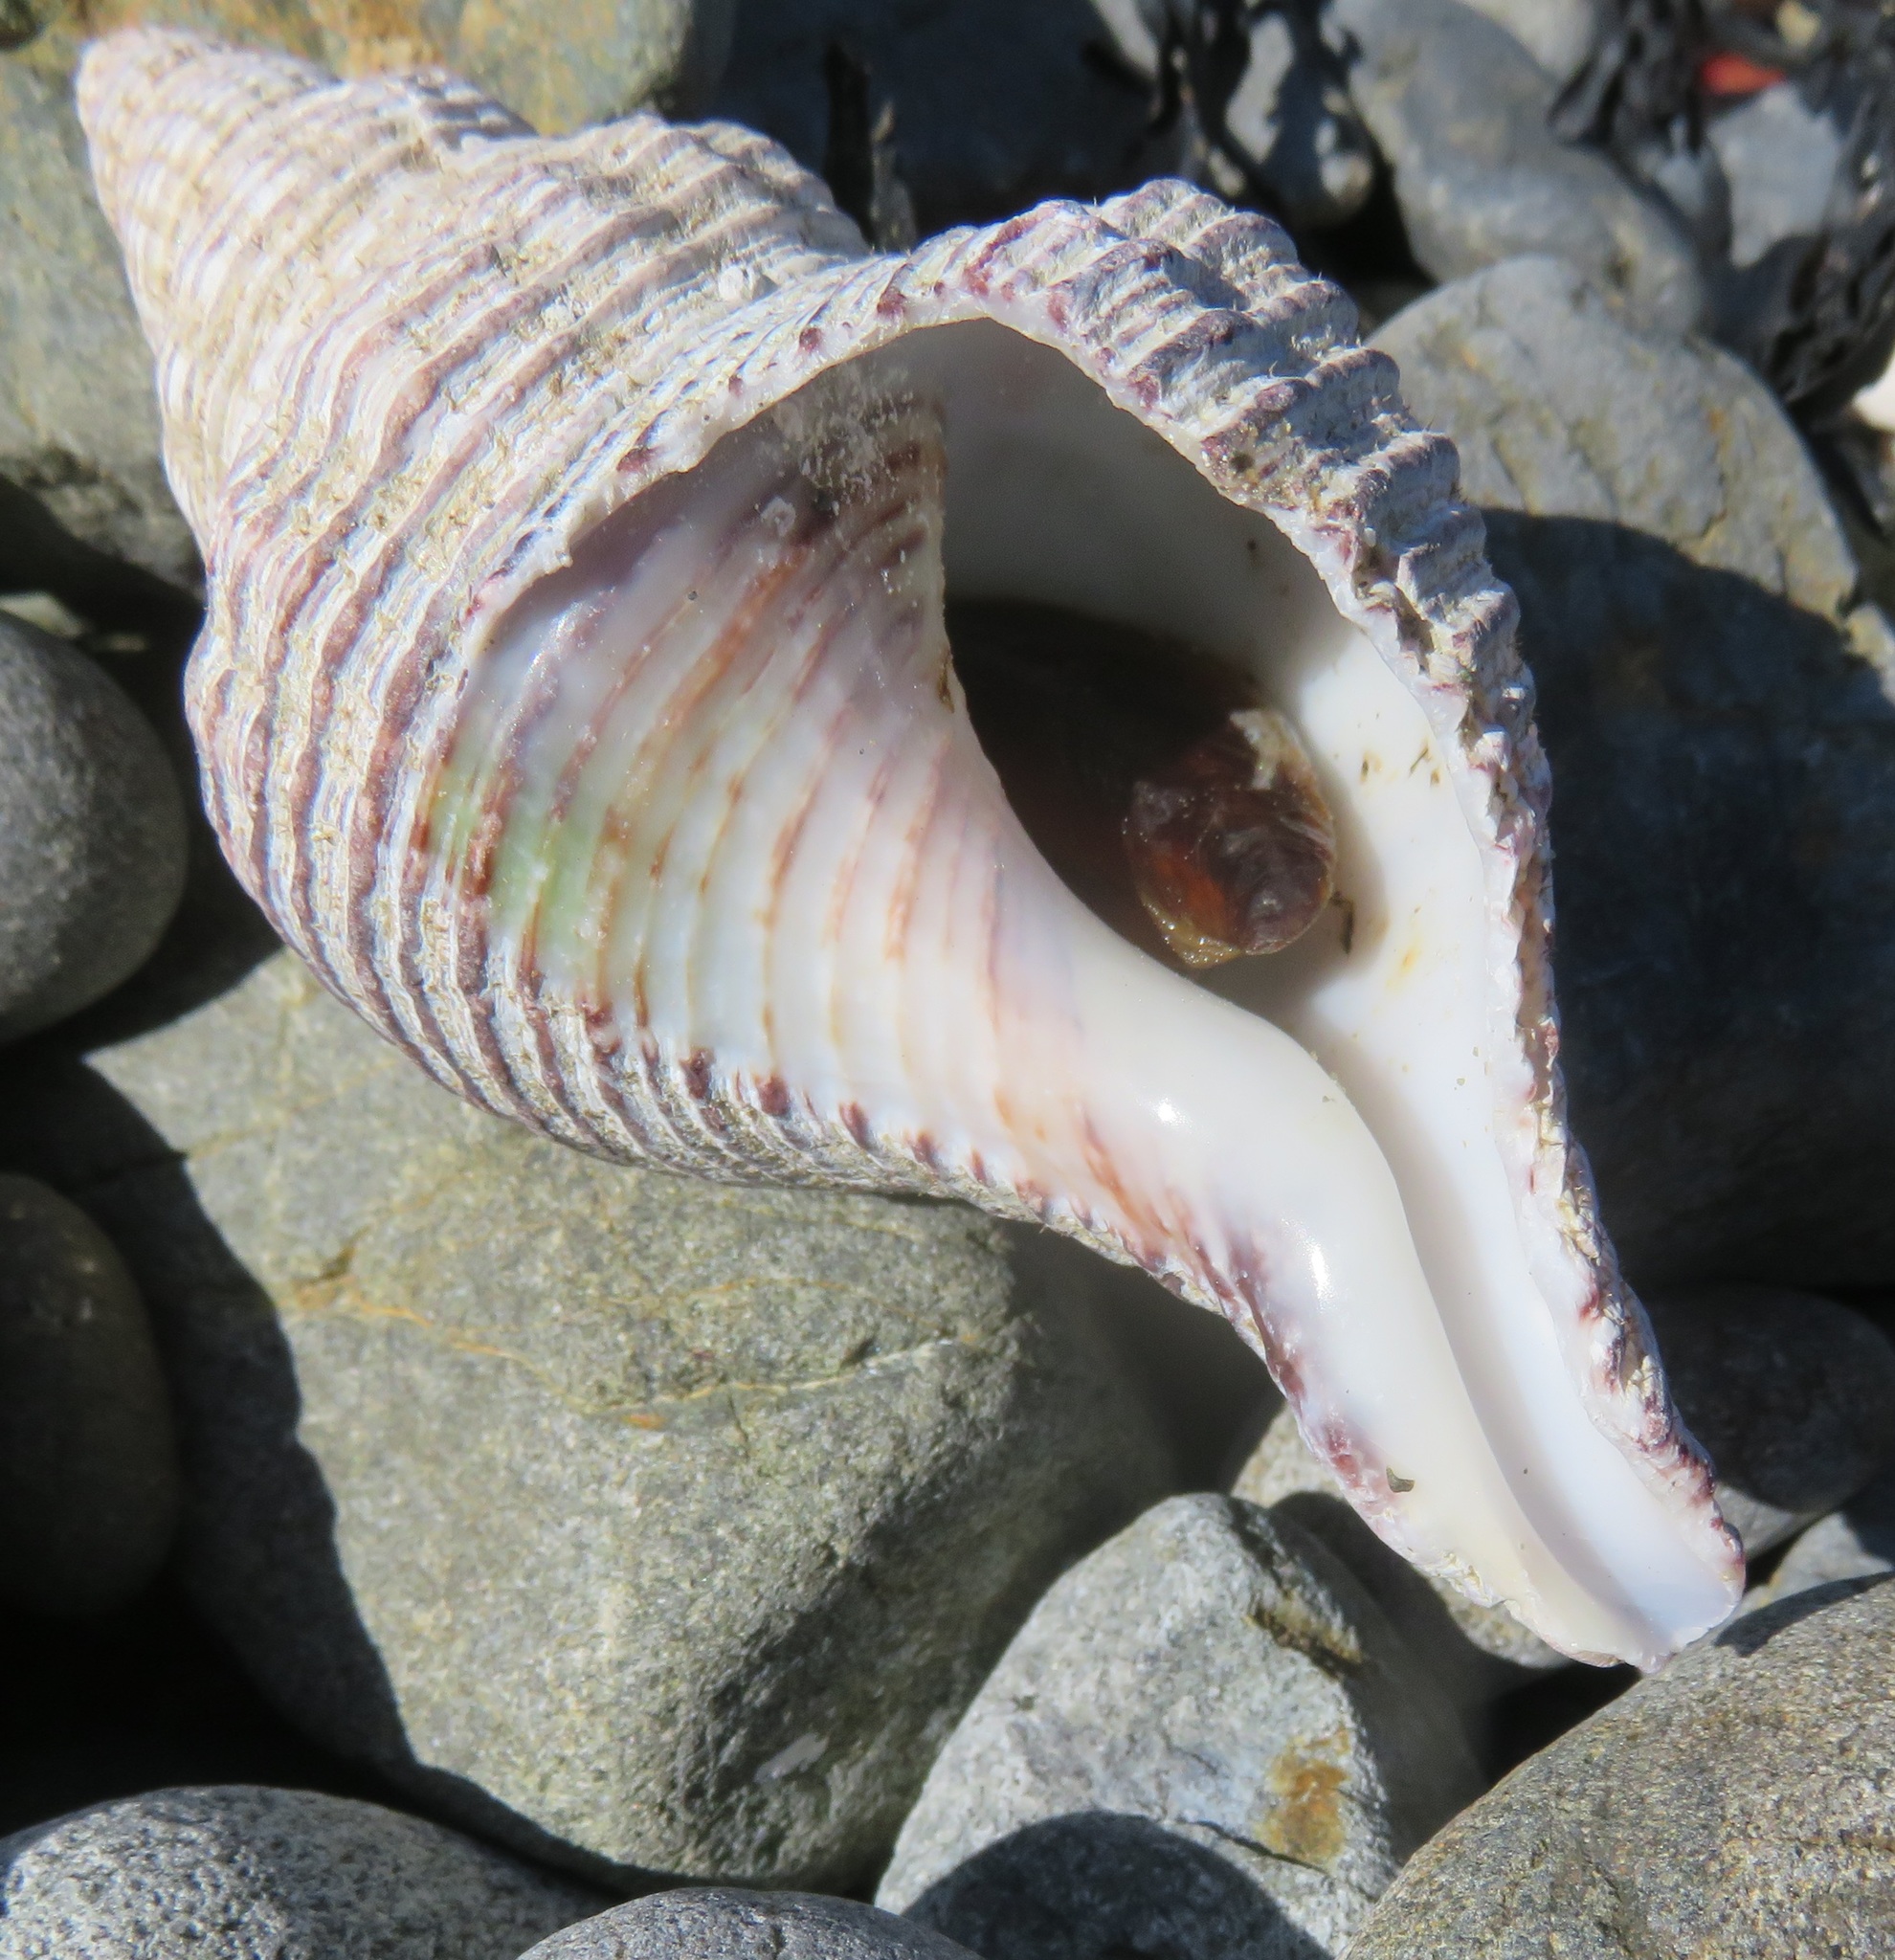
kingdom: Animalia
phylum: Mollusca
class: Gastropoda
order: Neogastropoda
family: Austrosiphonidae
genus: Penion
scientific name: Penion sulcatus
